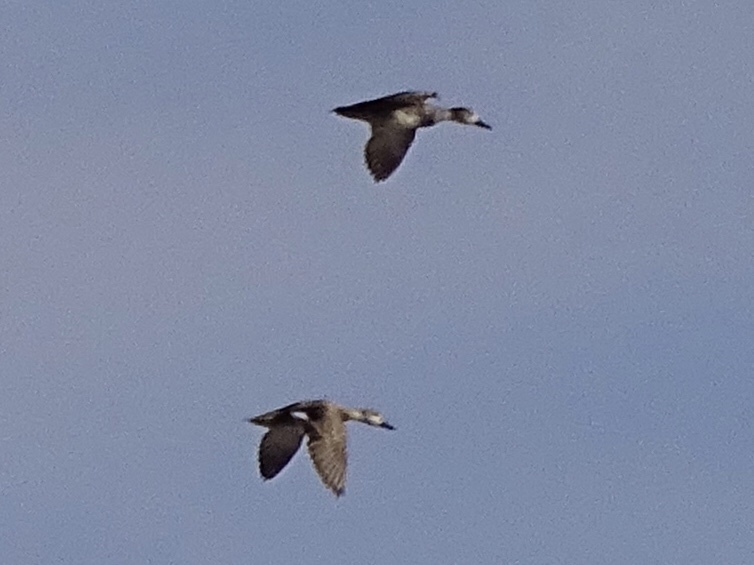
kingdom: Animalia
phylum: Chordata
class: Aves
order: Anseriformes
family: Anatidae
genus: Mareca
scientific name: Mareca strepera
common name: Gadwall
